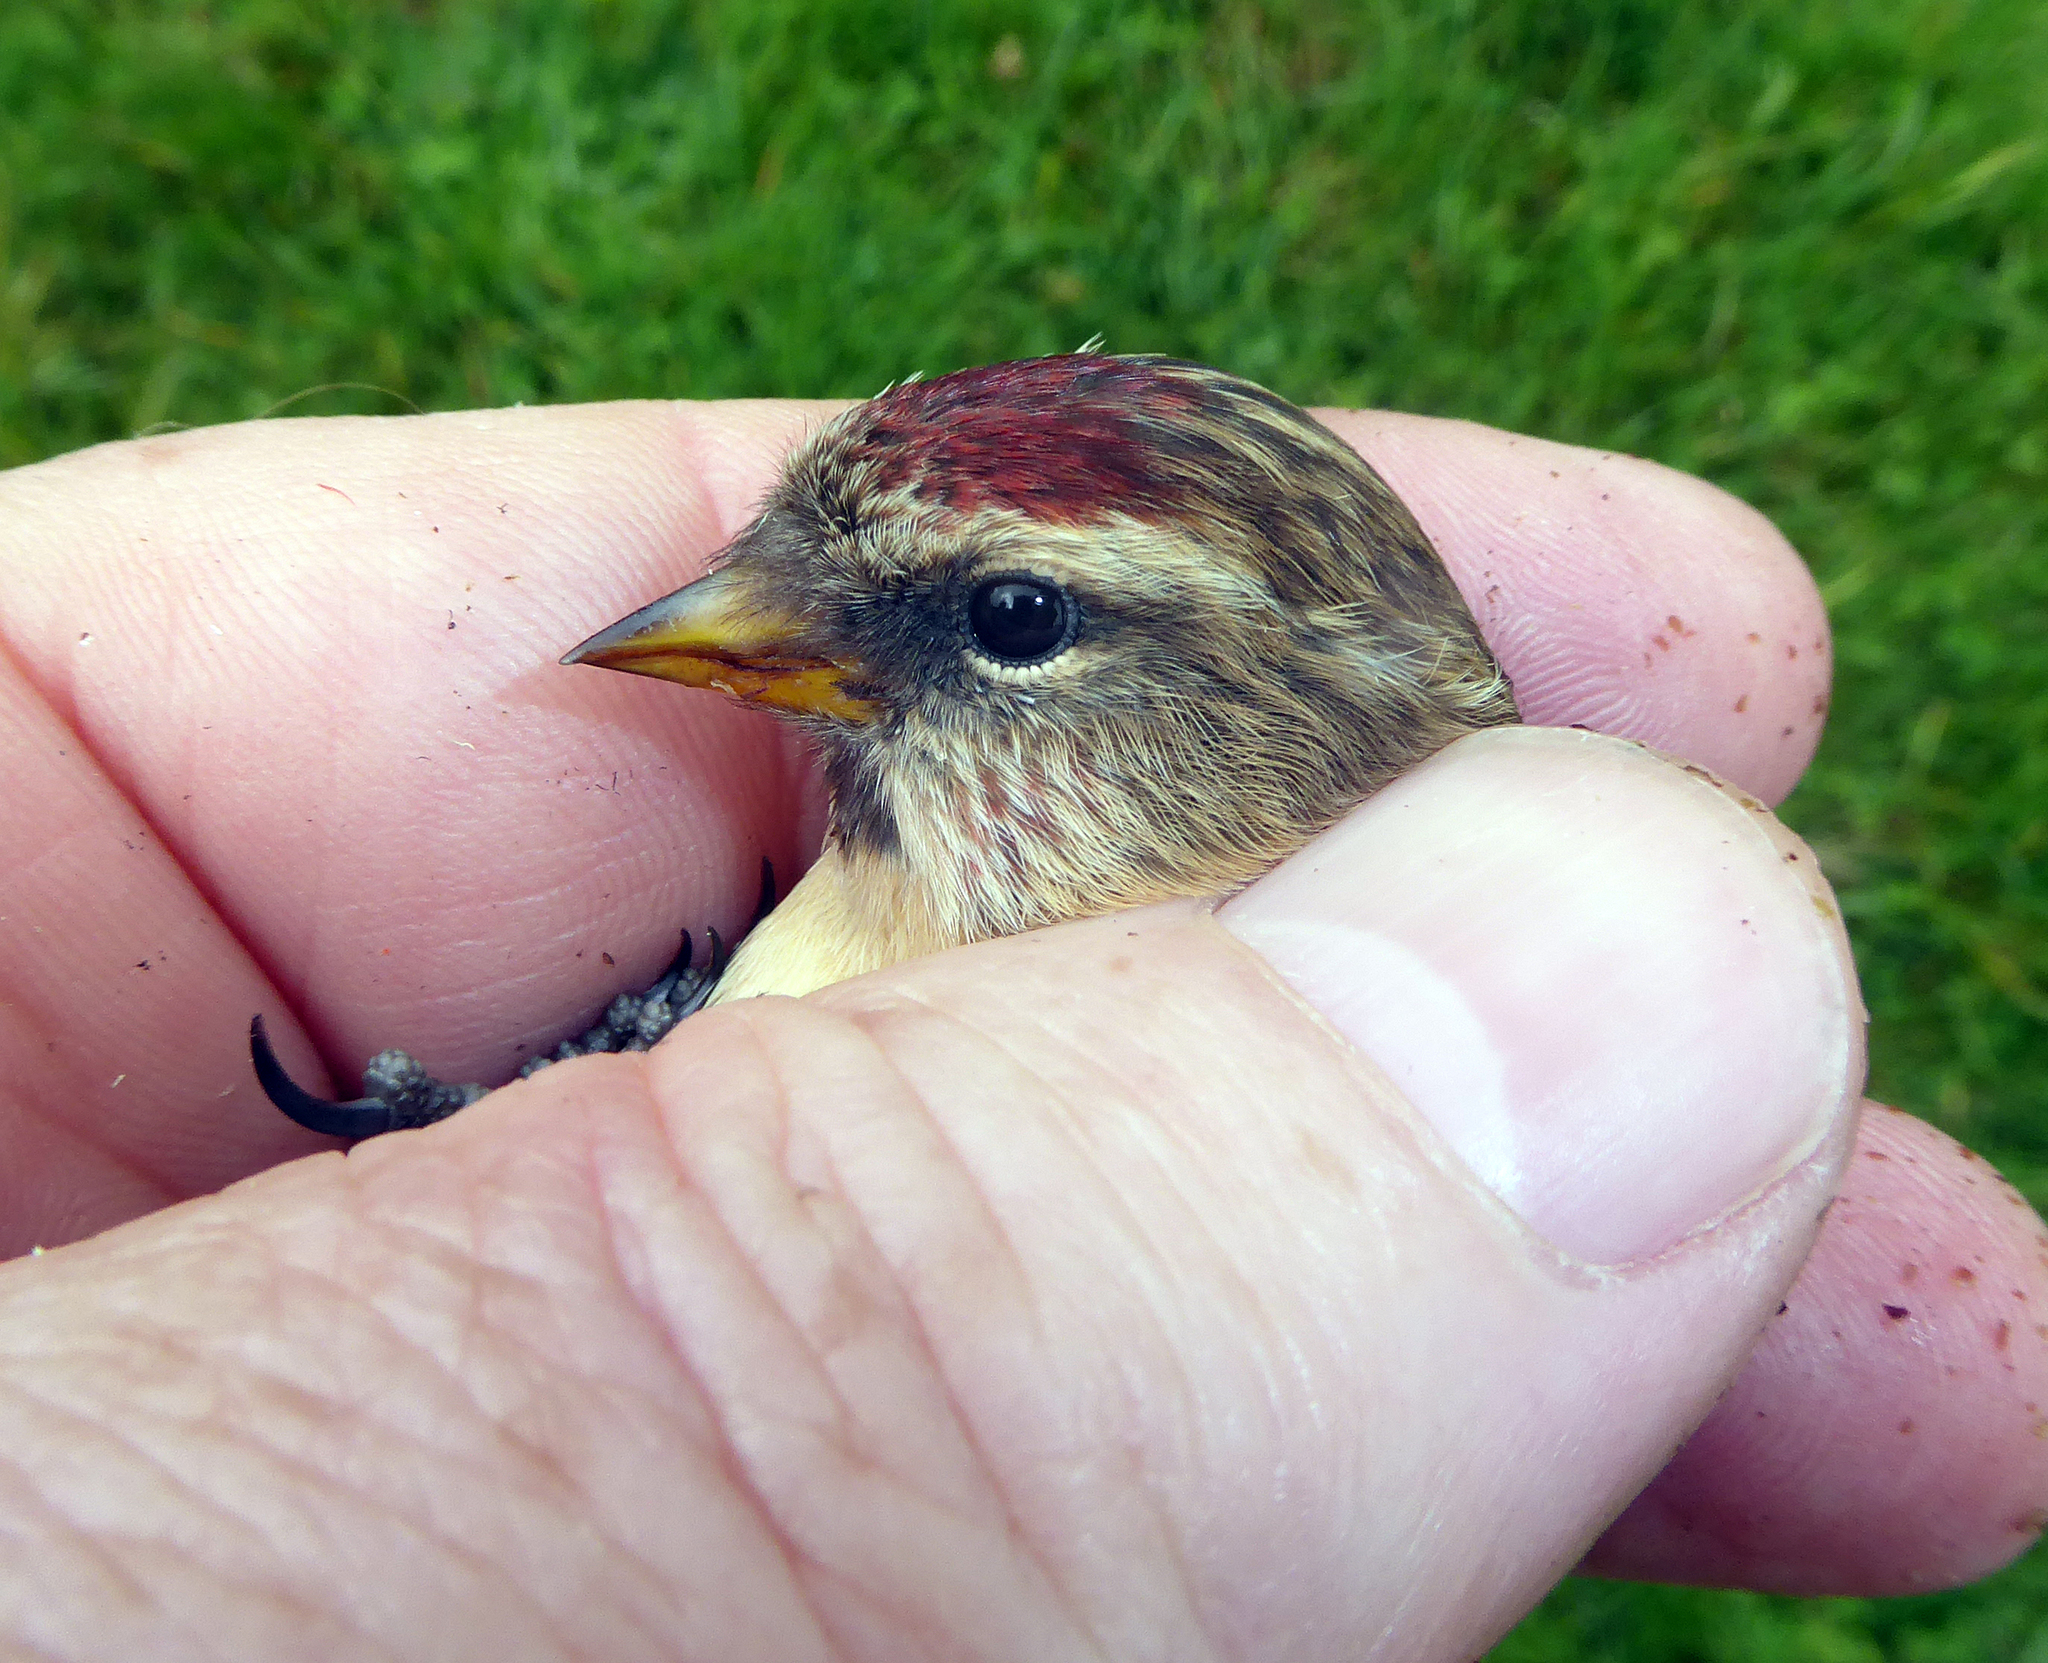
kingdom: Animalia
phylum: Chordata
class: Aves
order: Passeriformes
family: Fringillidae
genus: Acanthis
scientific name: Acanthis flammea
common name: Common redpoll
